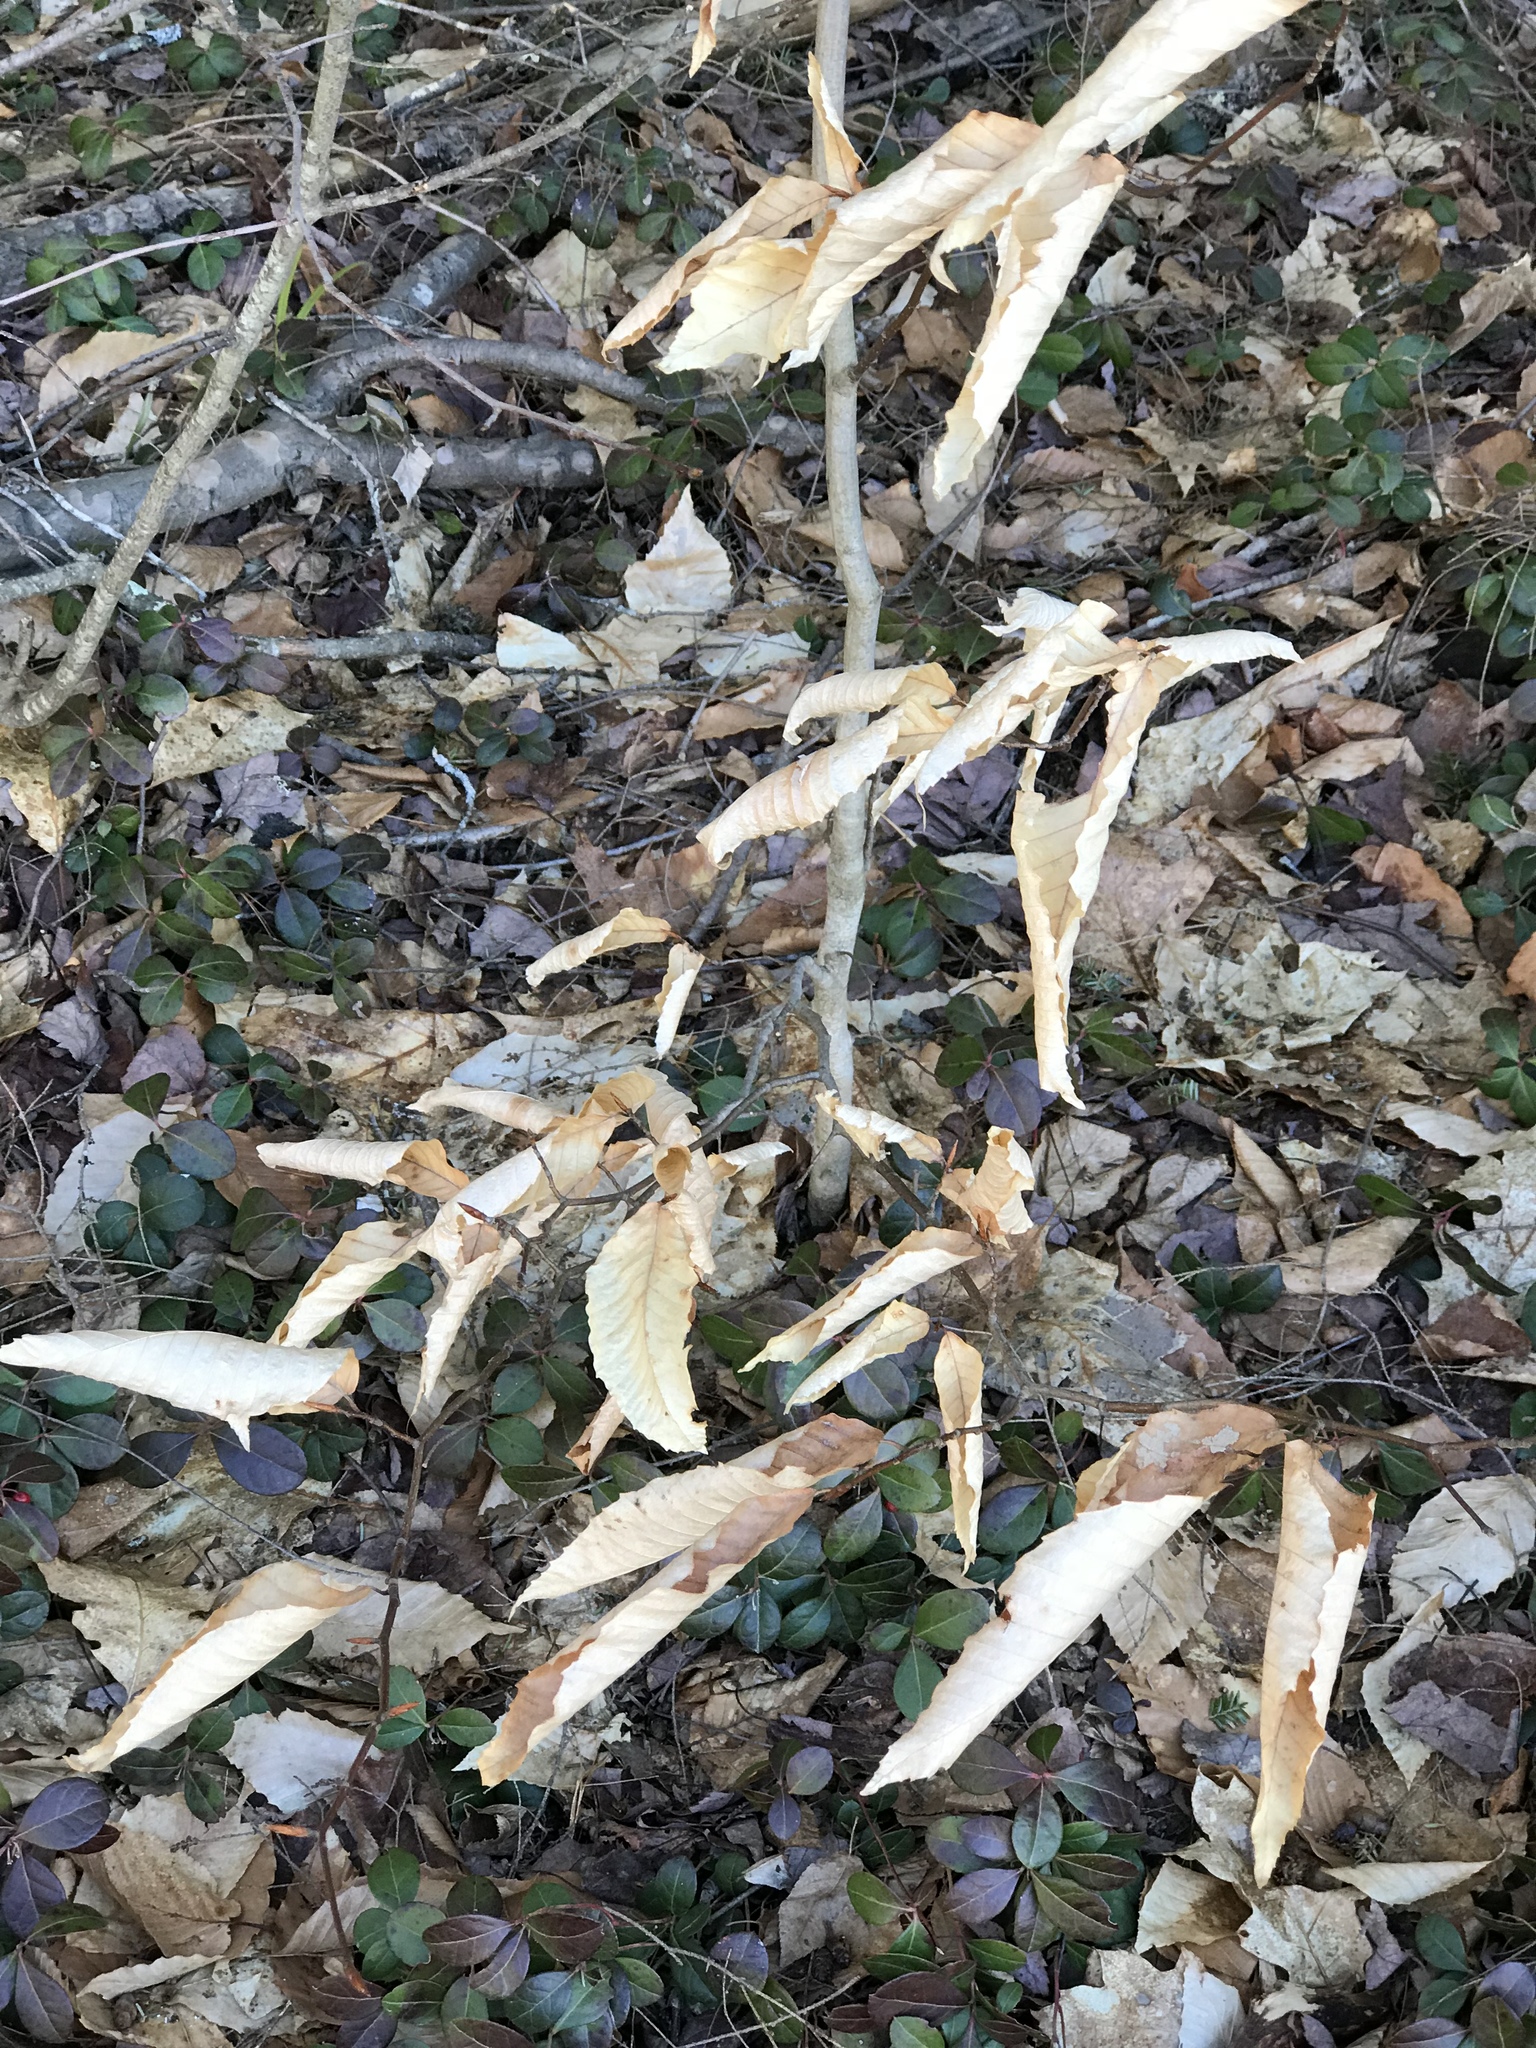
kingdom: Plantae
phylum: Tracheophyta
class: Magnoliopsida
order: Fagales
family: Fagaceae
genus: Fagus
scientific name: Fagus grandifolia
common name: American beech
